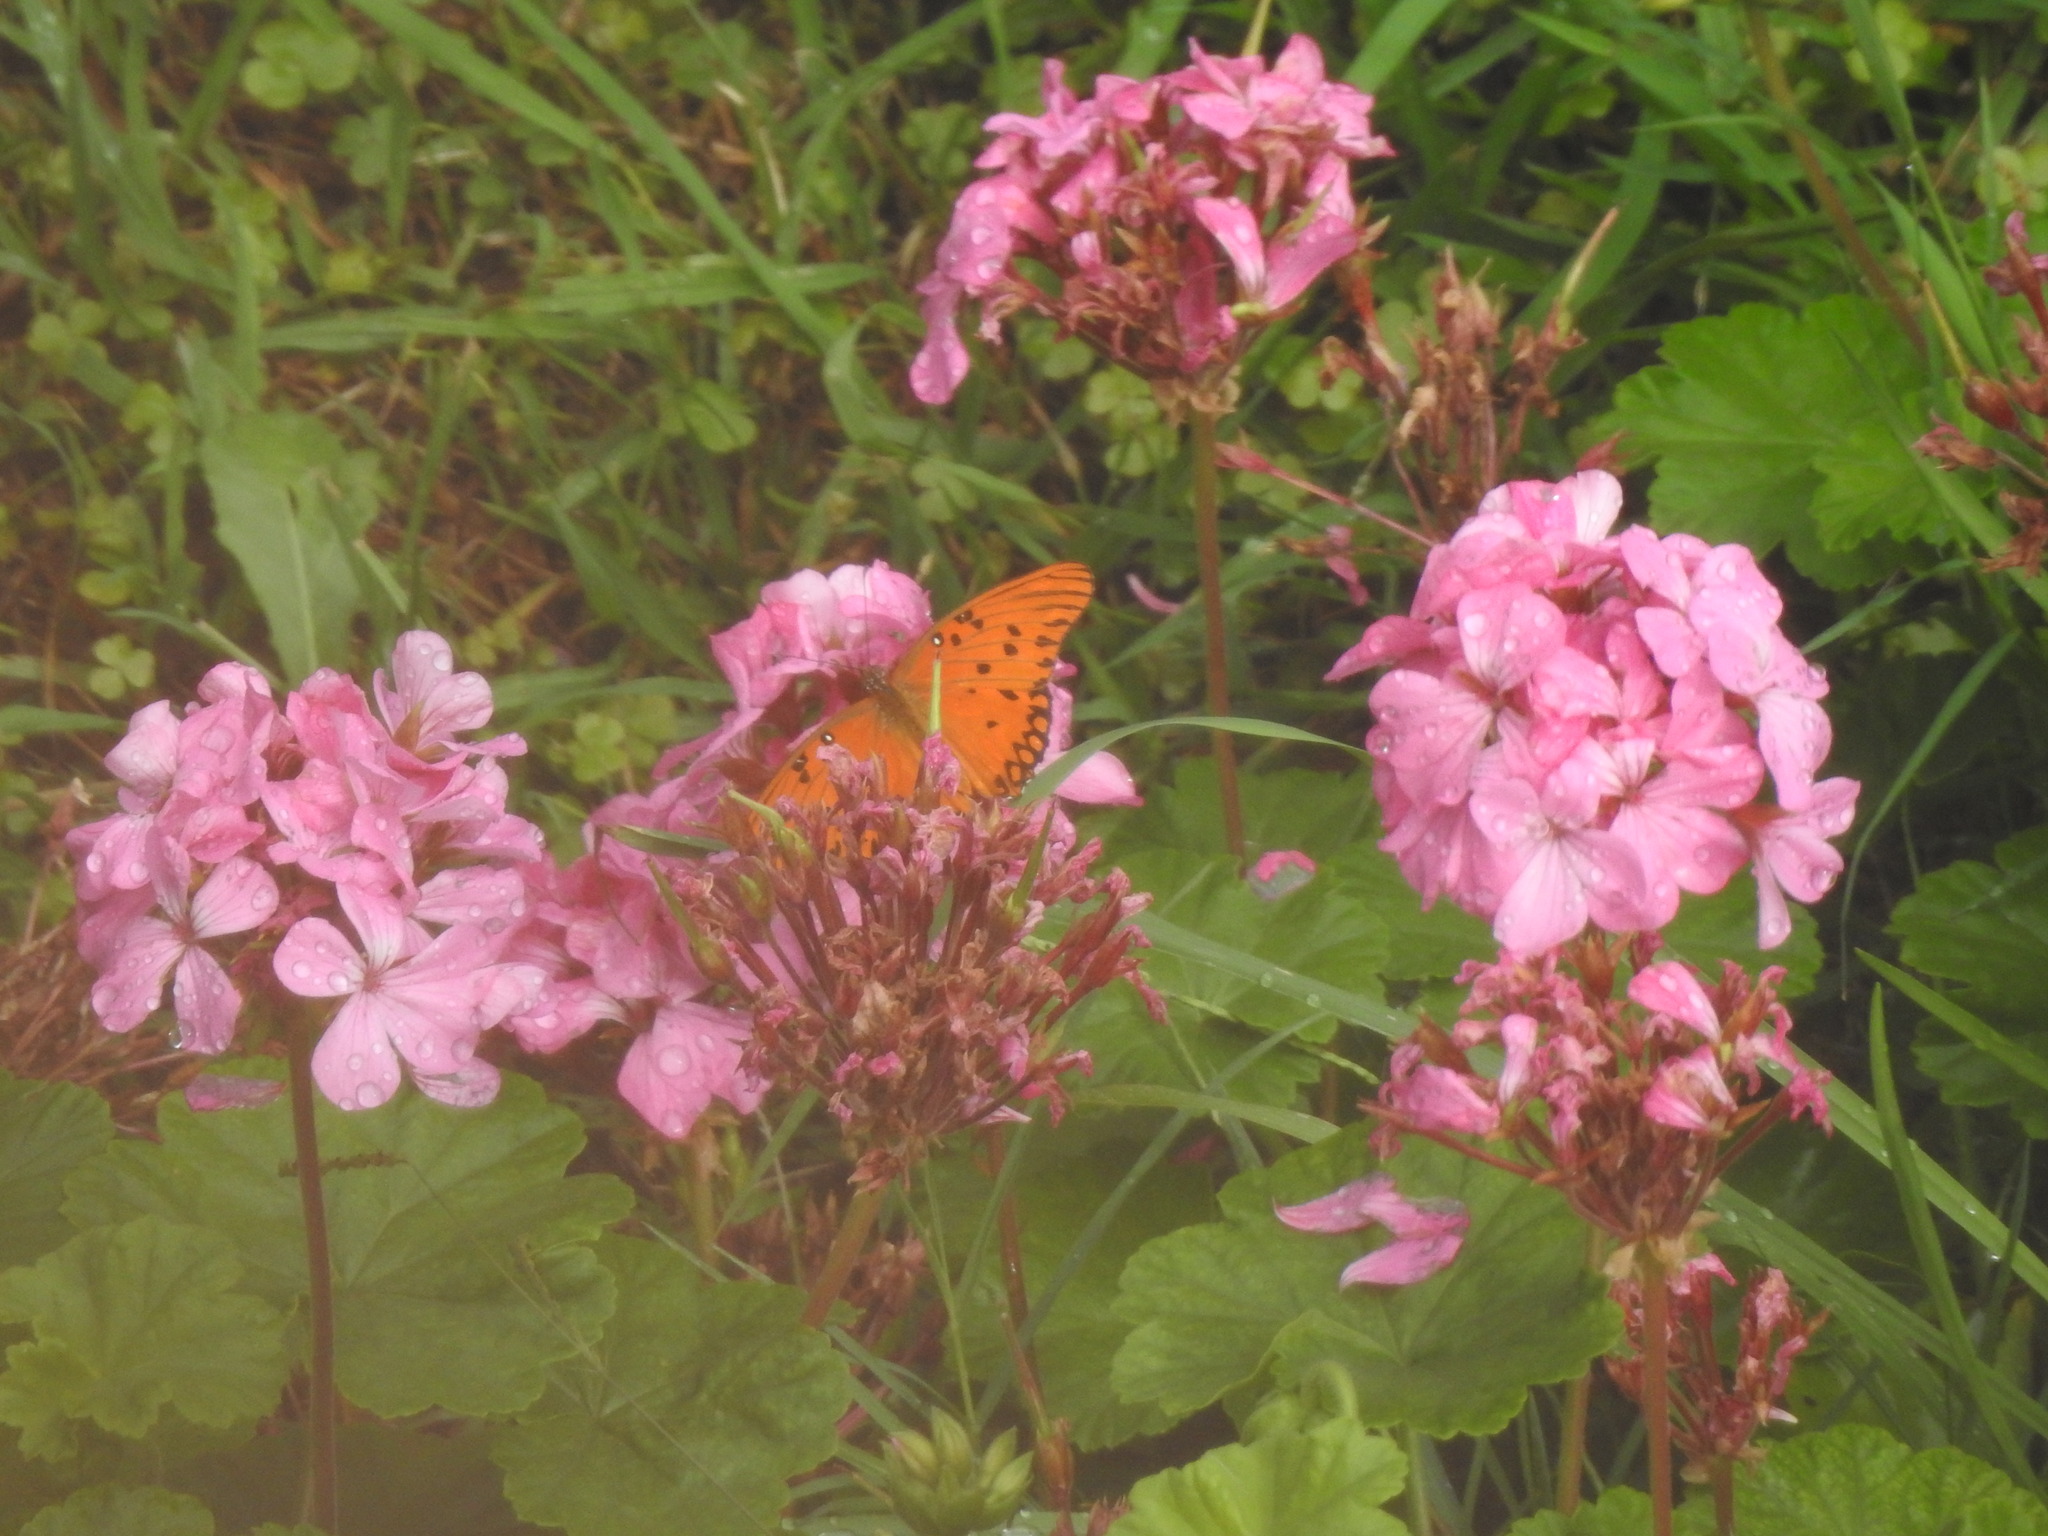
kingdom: Animalia
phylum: Arthropoda
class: Insecta
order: Lepidoptera
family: Nymphalidae
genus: Dione
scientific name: Dione vanillae
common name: Gulf fritillary
